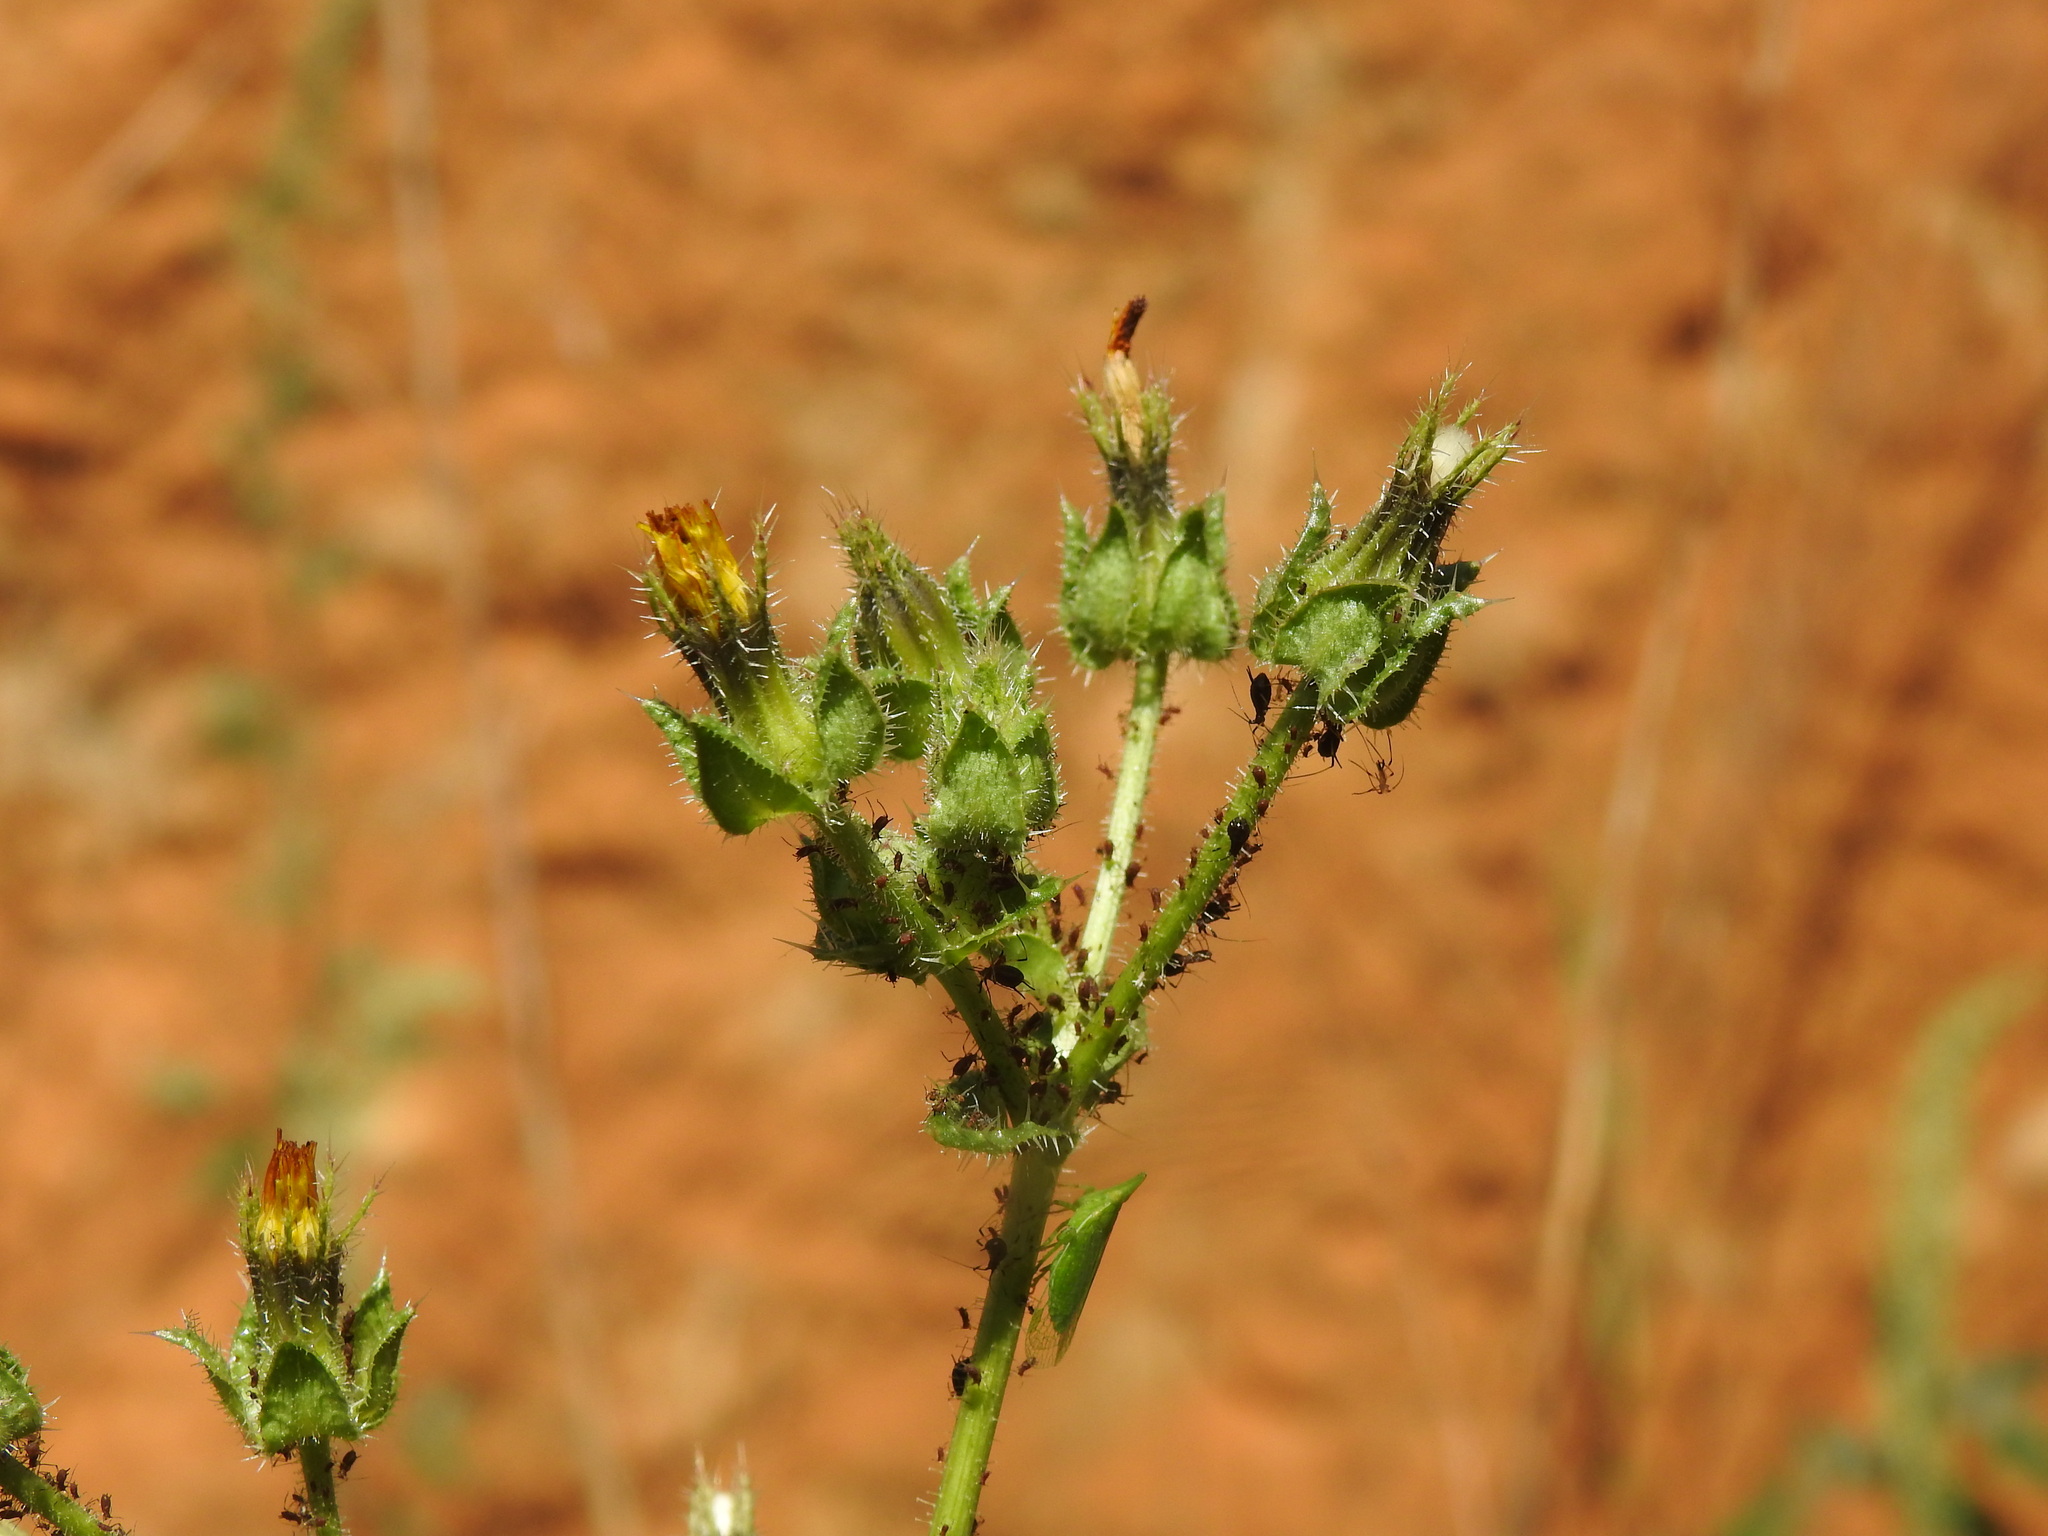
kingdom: Plantae
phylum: Tracheophyta
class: Magnoliopsida
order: Asterales
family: Asteraceae
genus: Helminthotheca
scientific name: Helminthotheca echioides
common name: Ox-tongue
